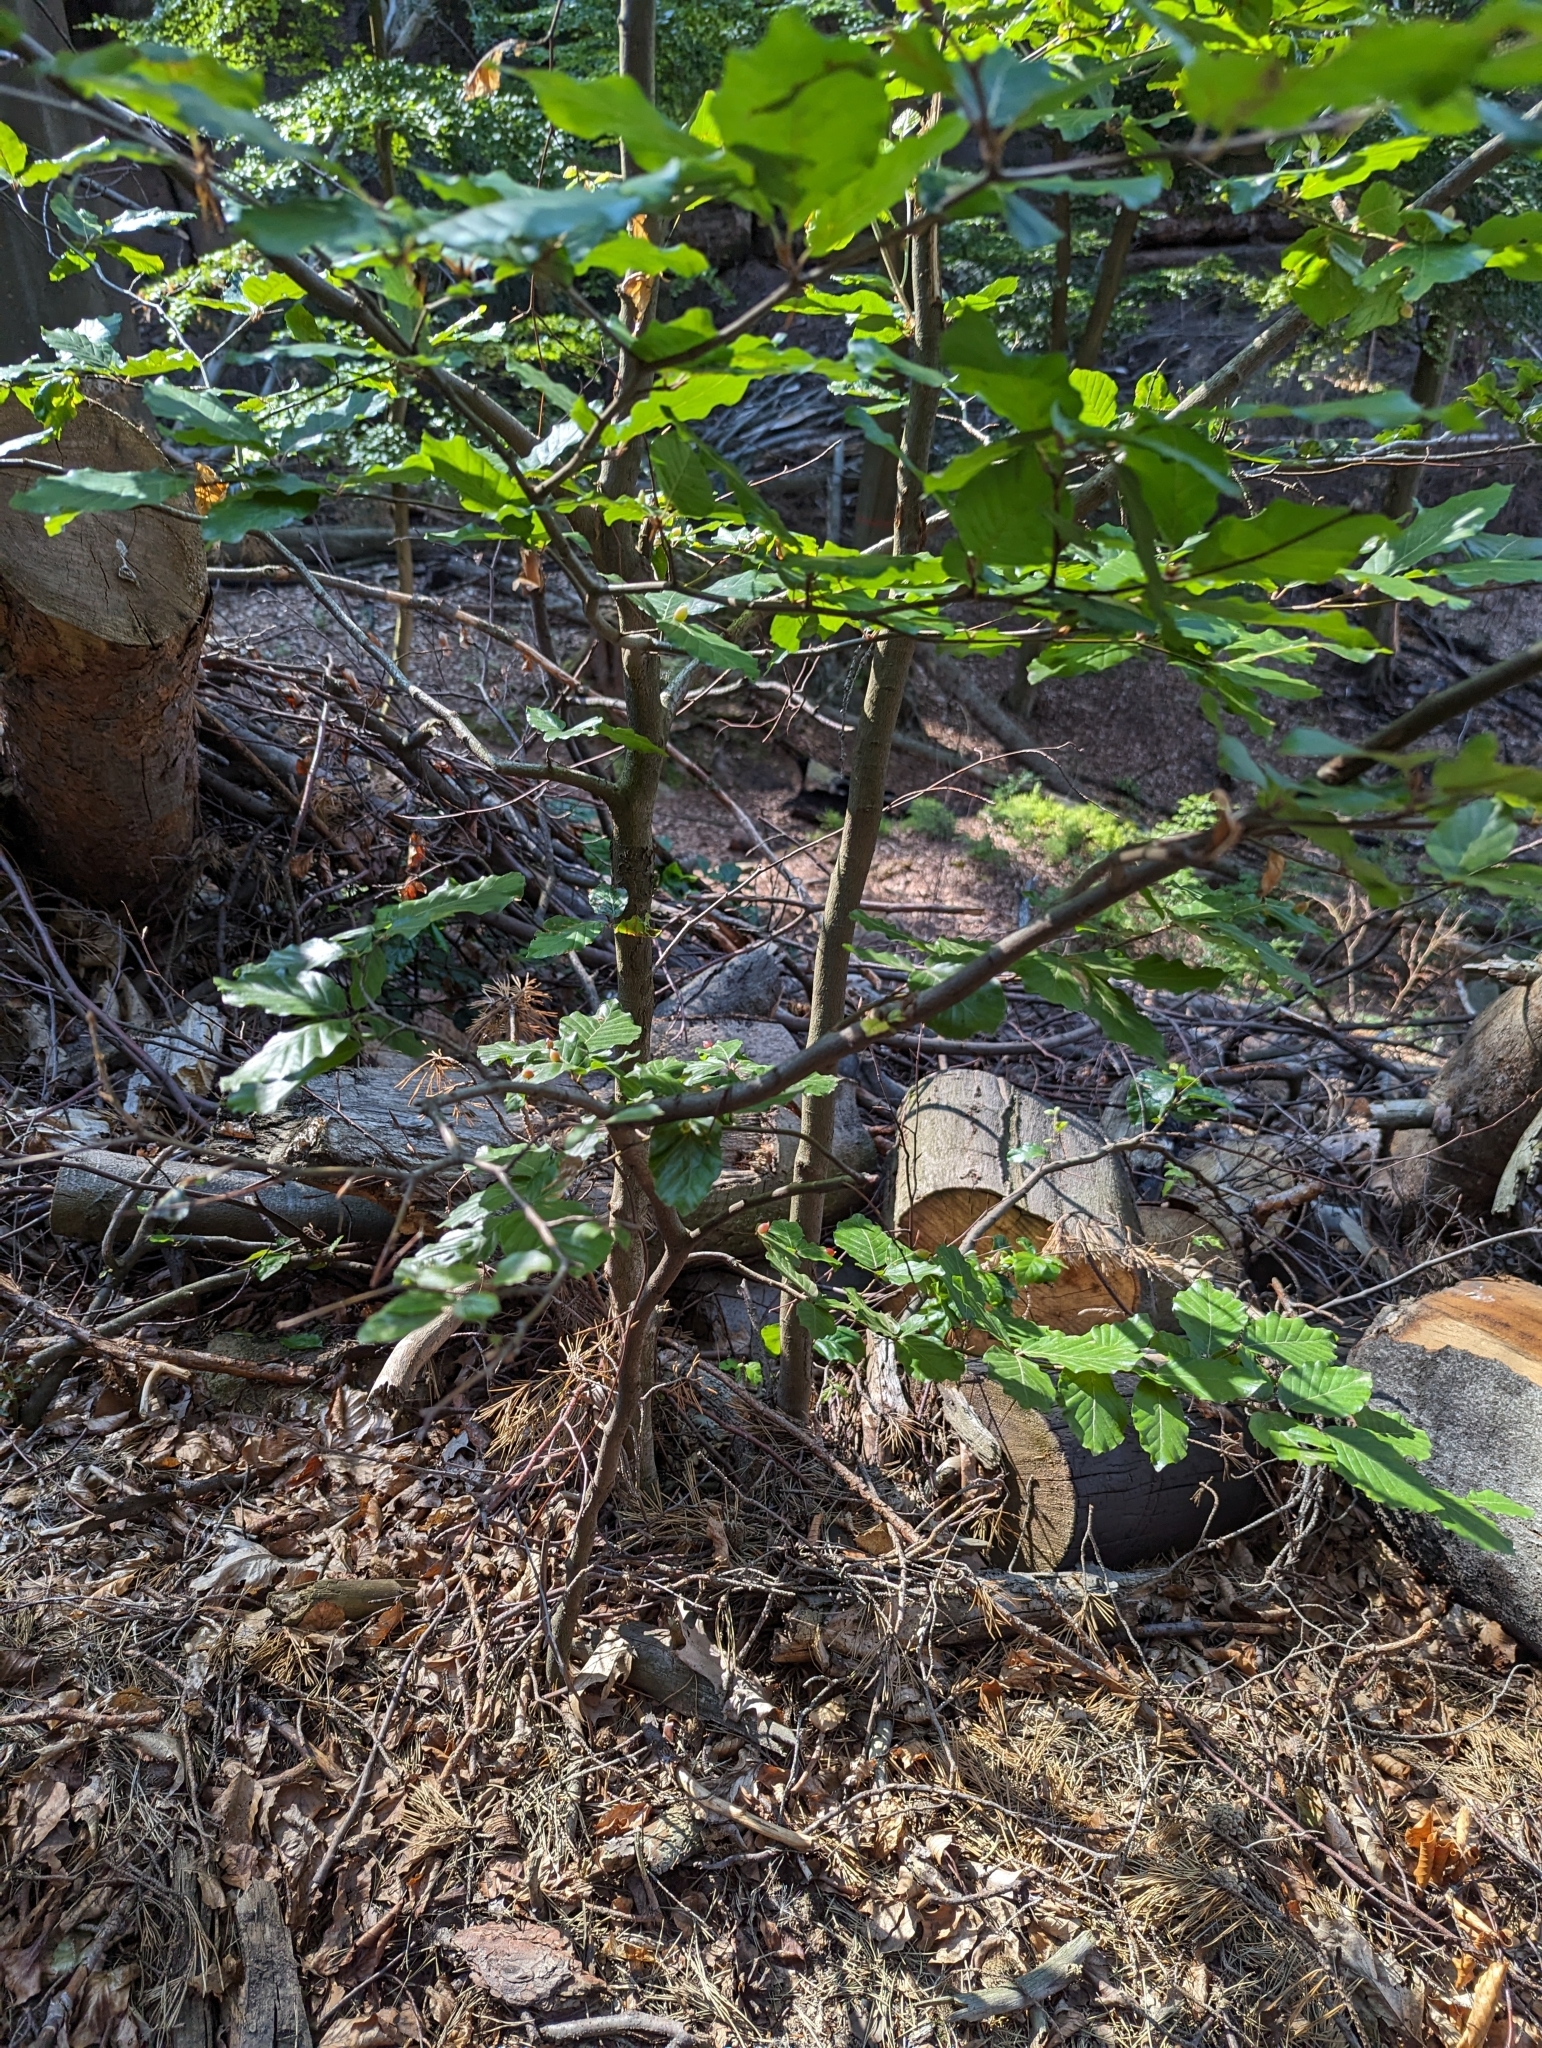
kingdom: Plantae
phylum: Tracheophyta
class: Magnoliopsida
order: Fagales
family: Fagaceae
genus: Fagus
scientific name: Fagus sylvatica
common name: Beech
